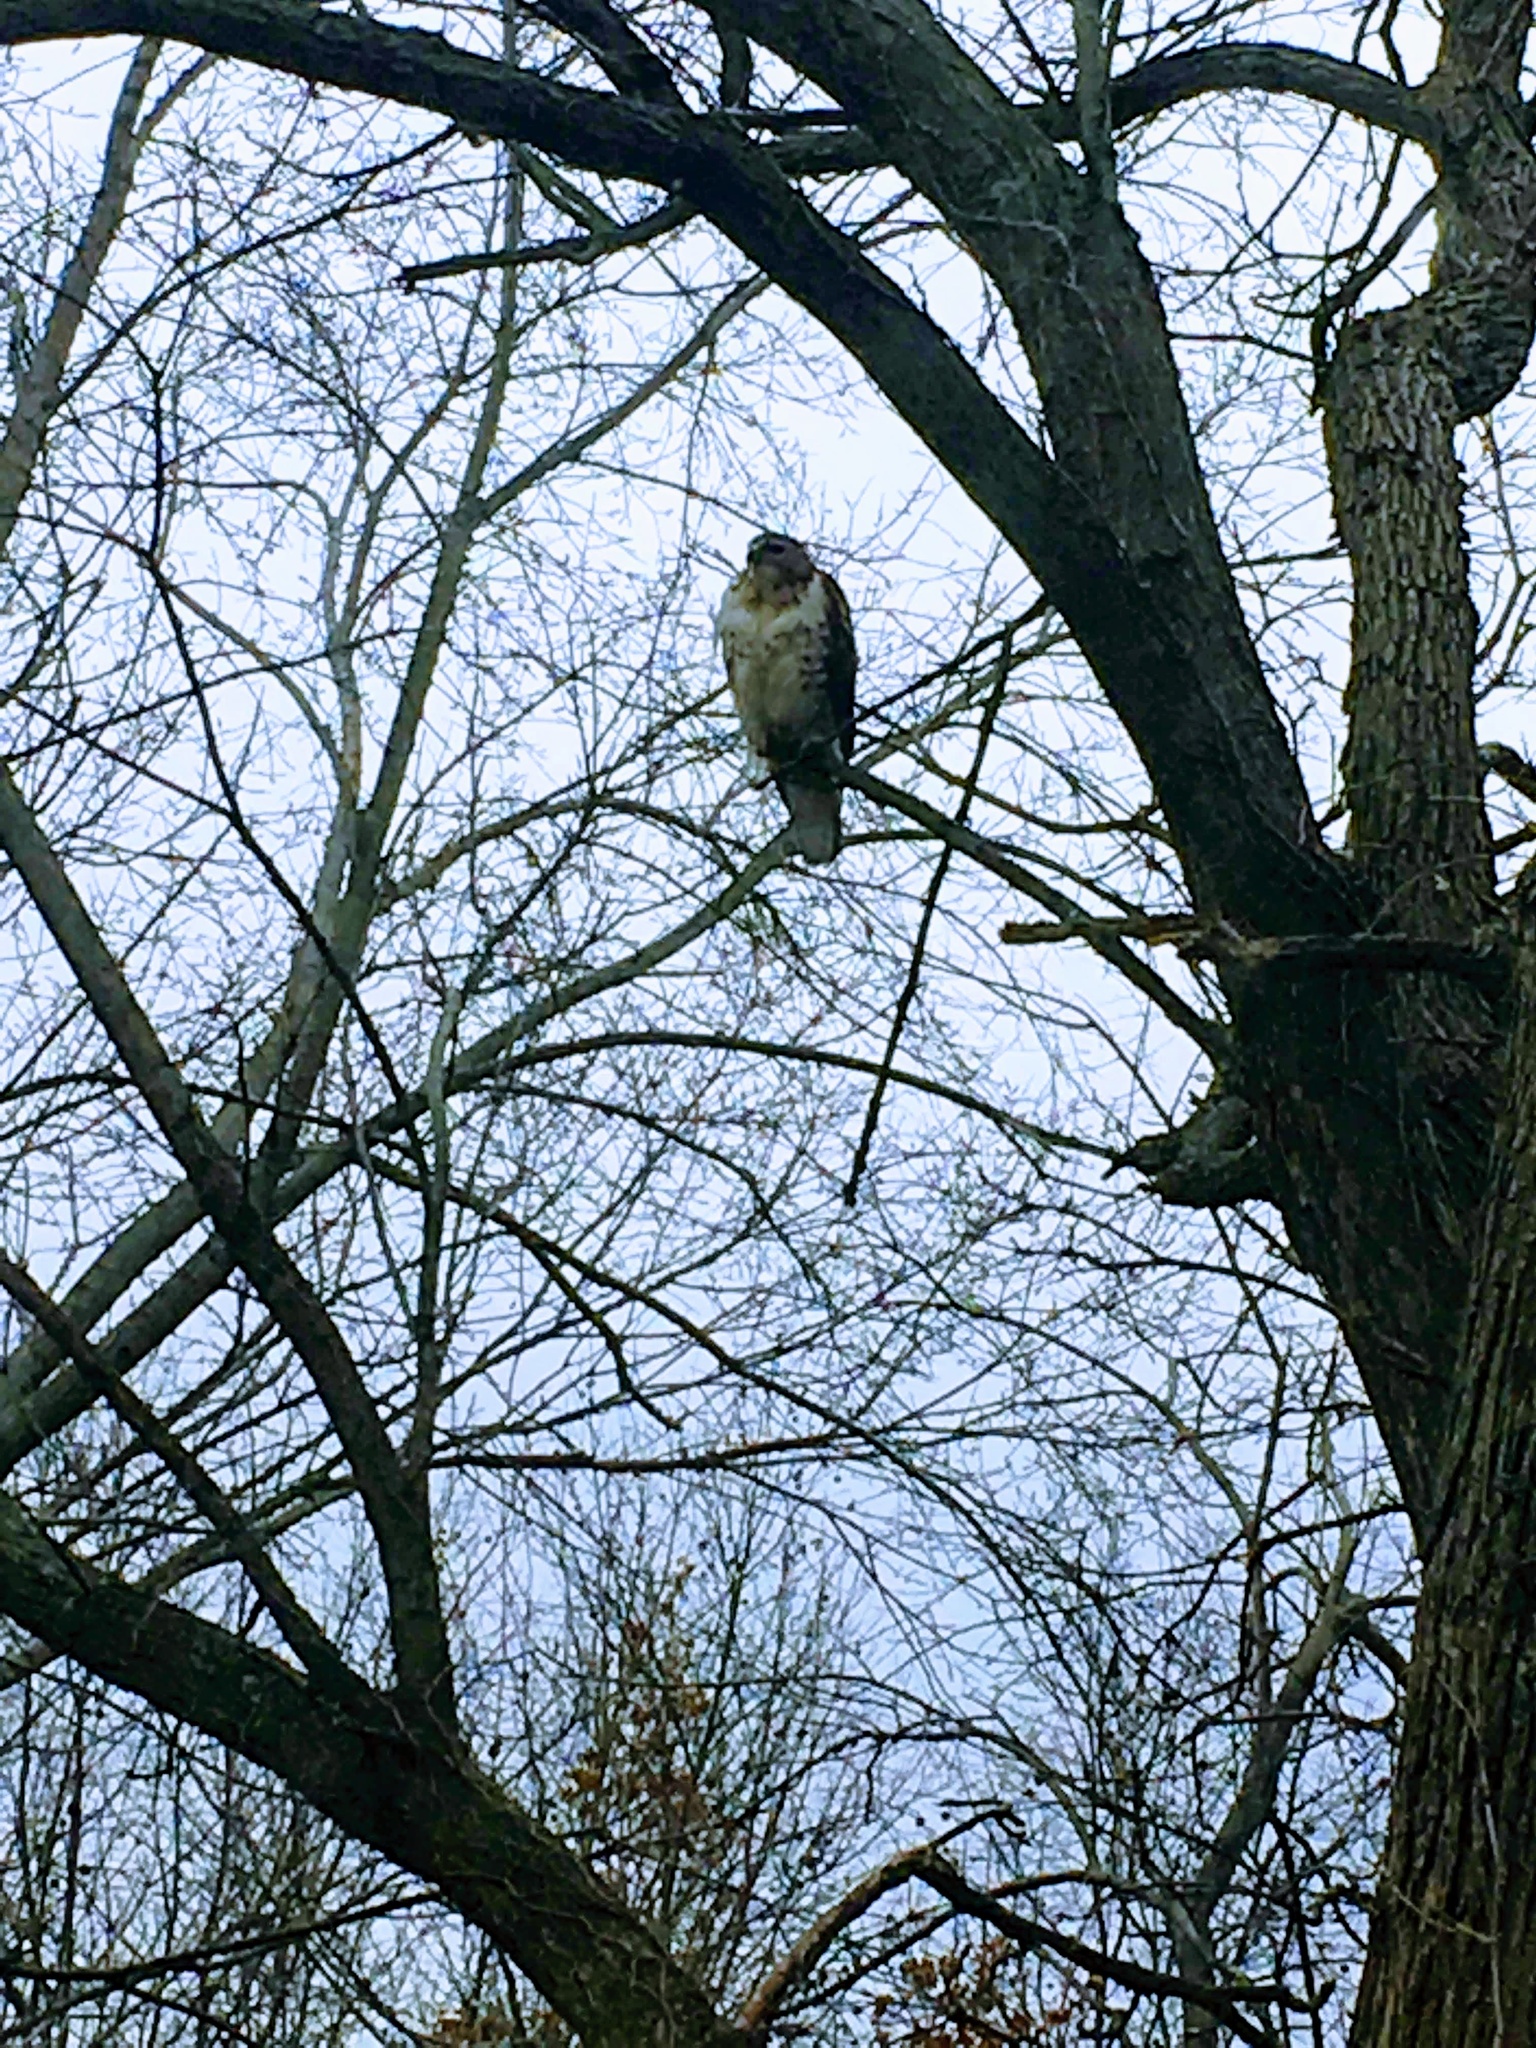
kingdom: Animalia
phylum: Chordata
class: Aves
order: Accipitriformes
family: Accipitridae
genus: Buteo
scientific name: Buteo jamaicensis
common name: Red-tailed hawk
